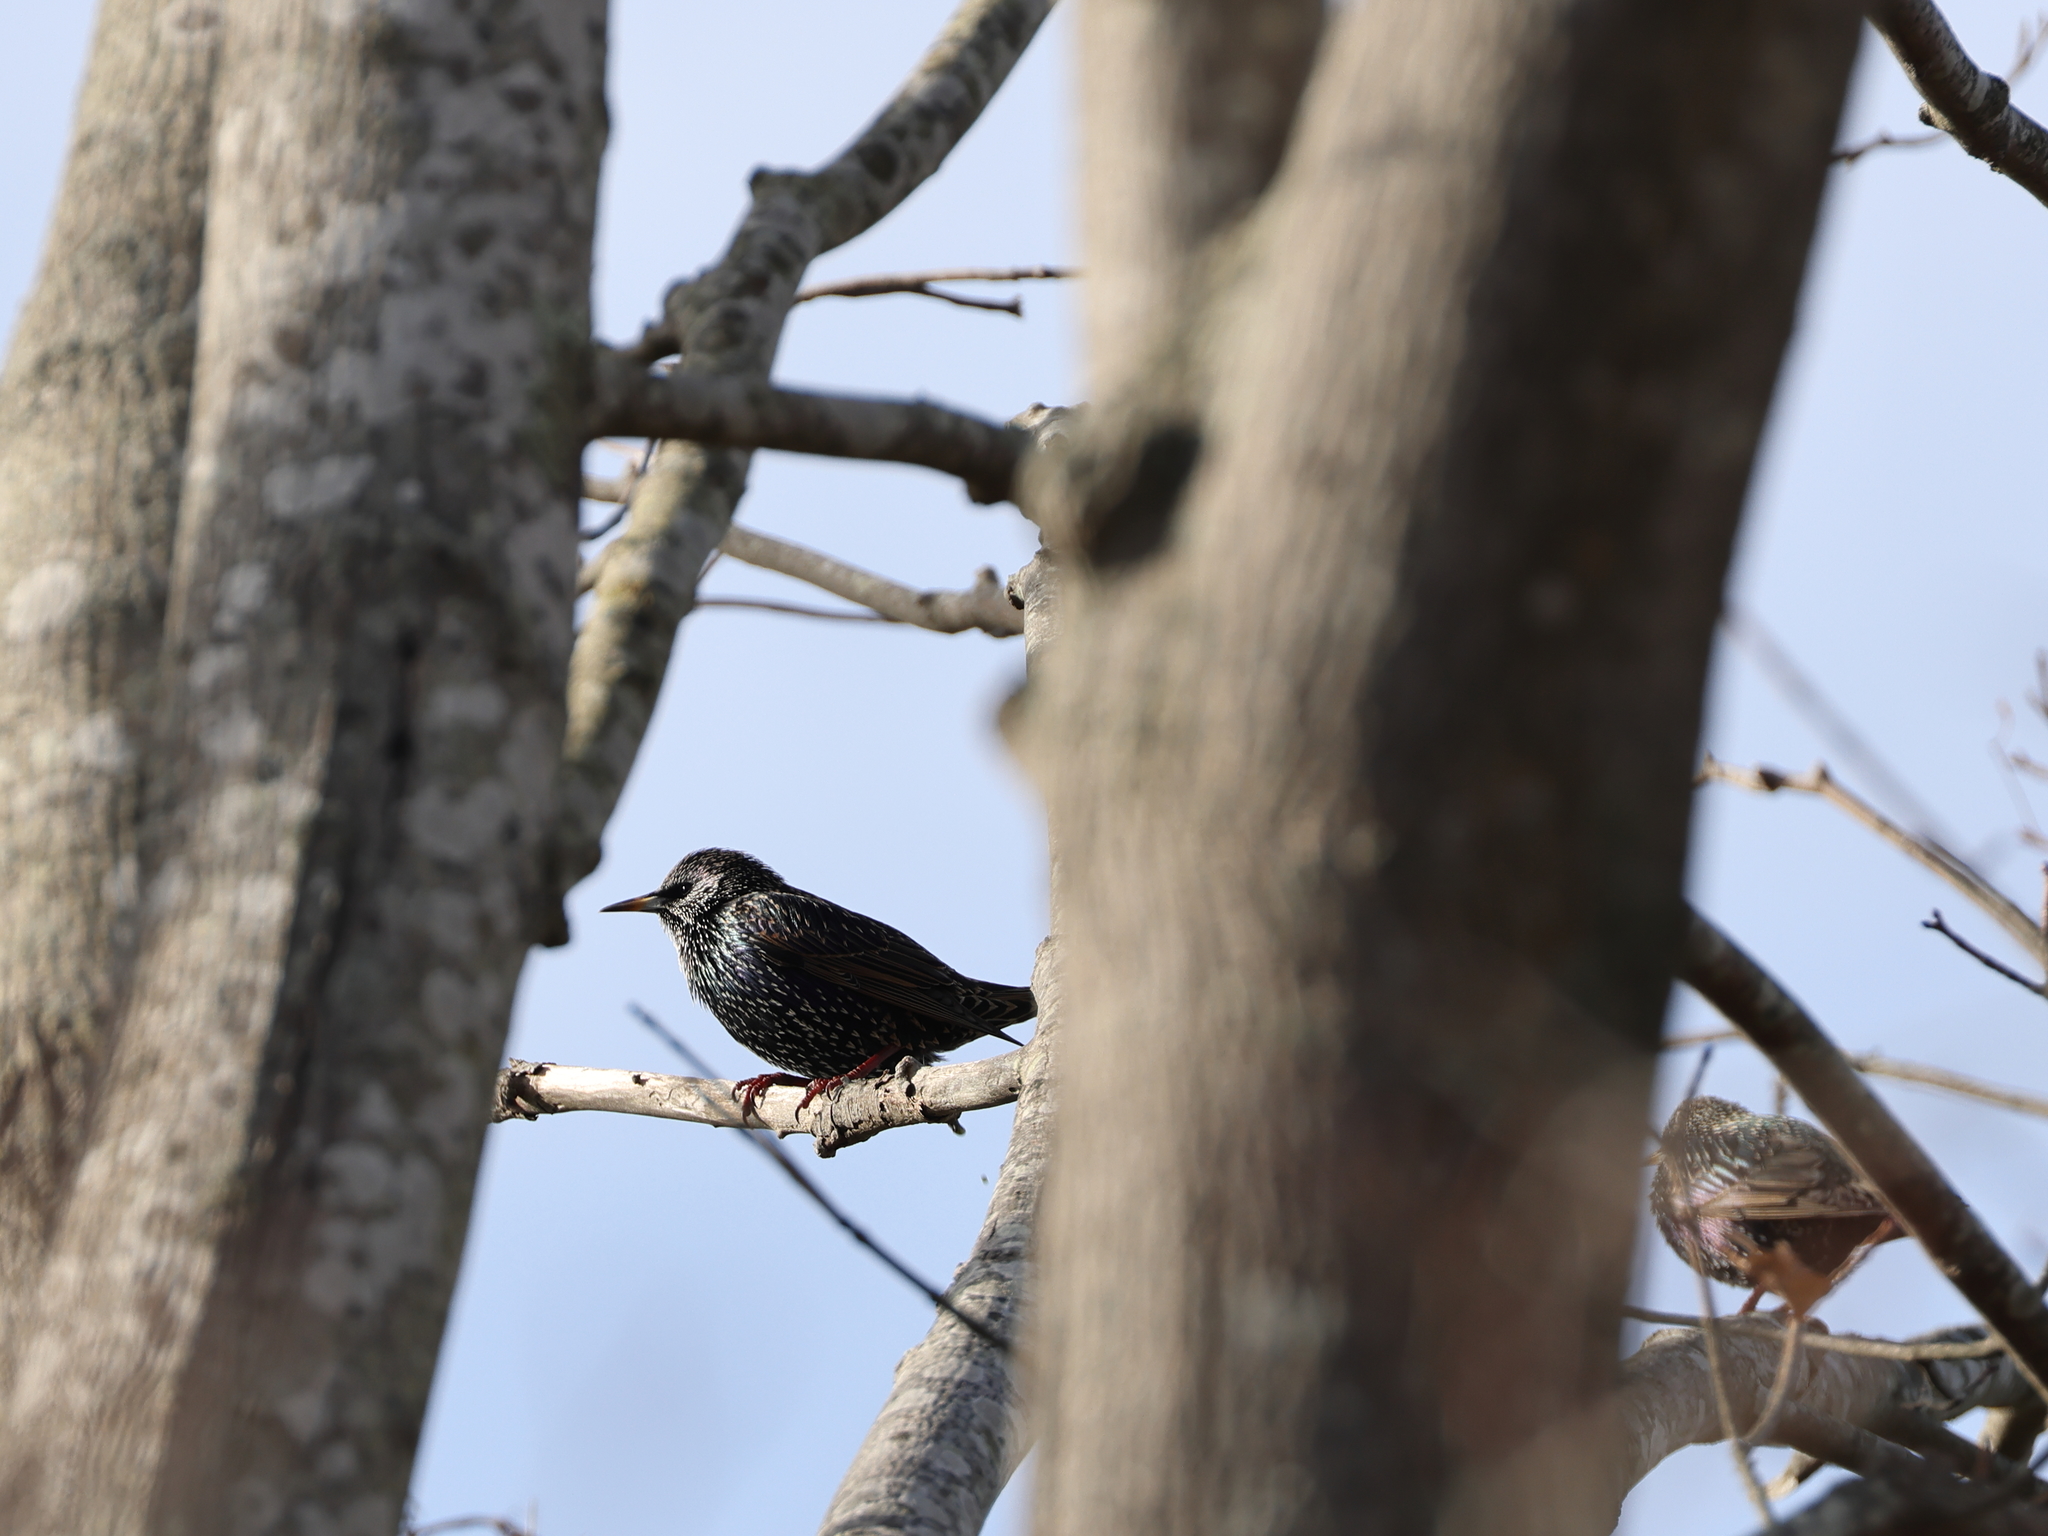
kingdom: Animalia
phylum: Chordata
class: Aves
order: Passeriformes
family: Sturnidae
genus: Sturnus
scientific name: Sturnus vulgaris
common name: Common starling
